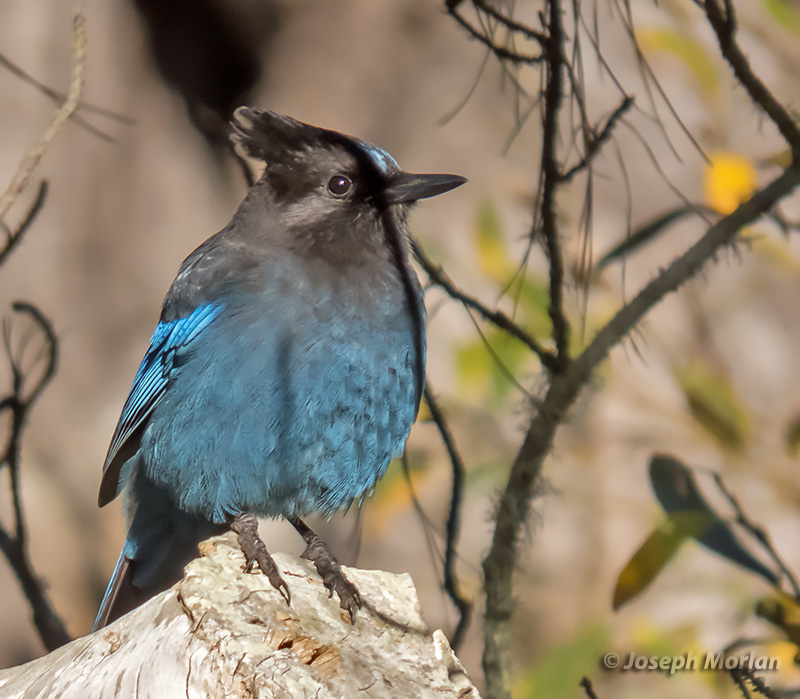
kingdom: Animalia
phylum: Chordata
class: Aves
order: Passeriformes
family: Corvidae
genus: Cyanocitta
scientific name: Cyanocitta stelleri
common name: Steller's jay
